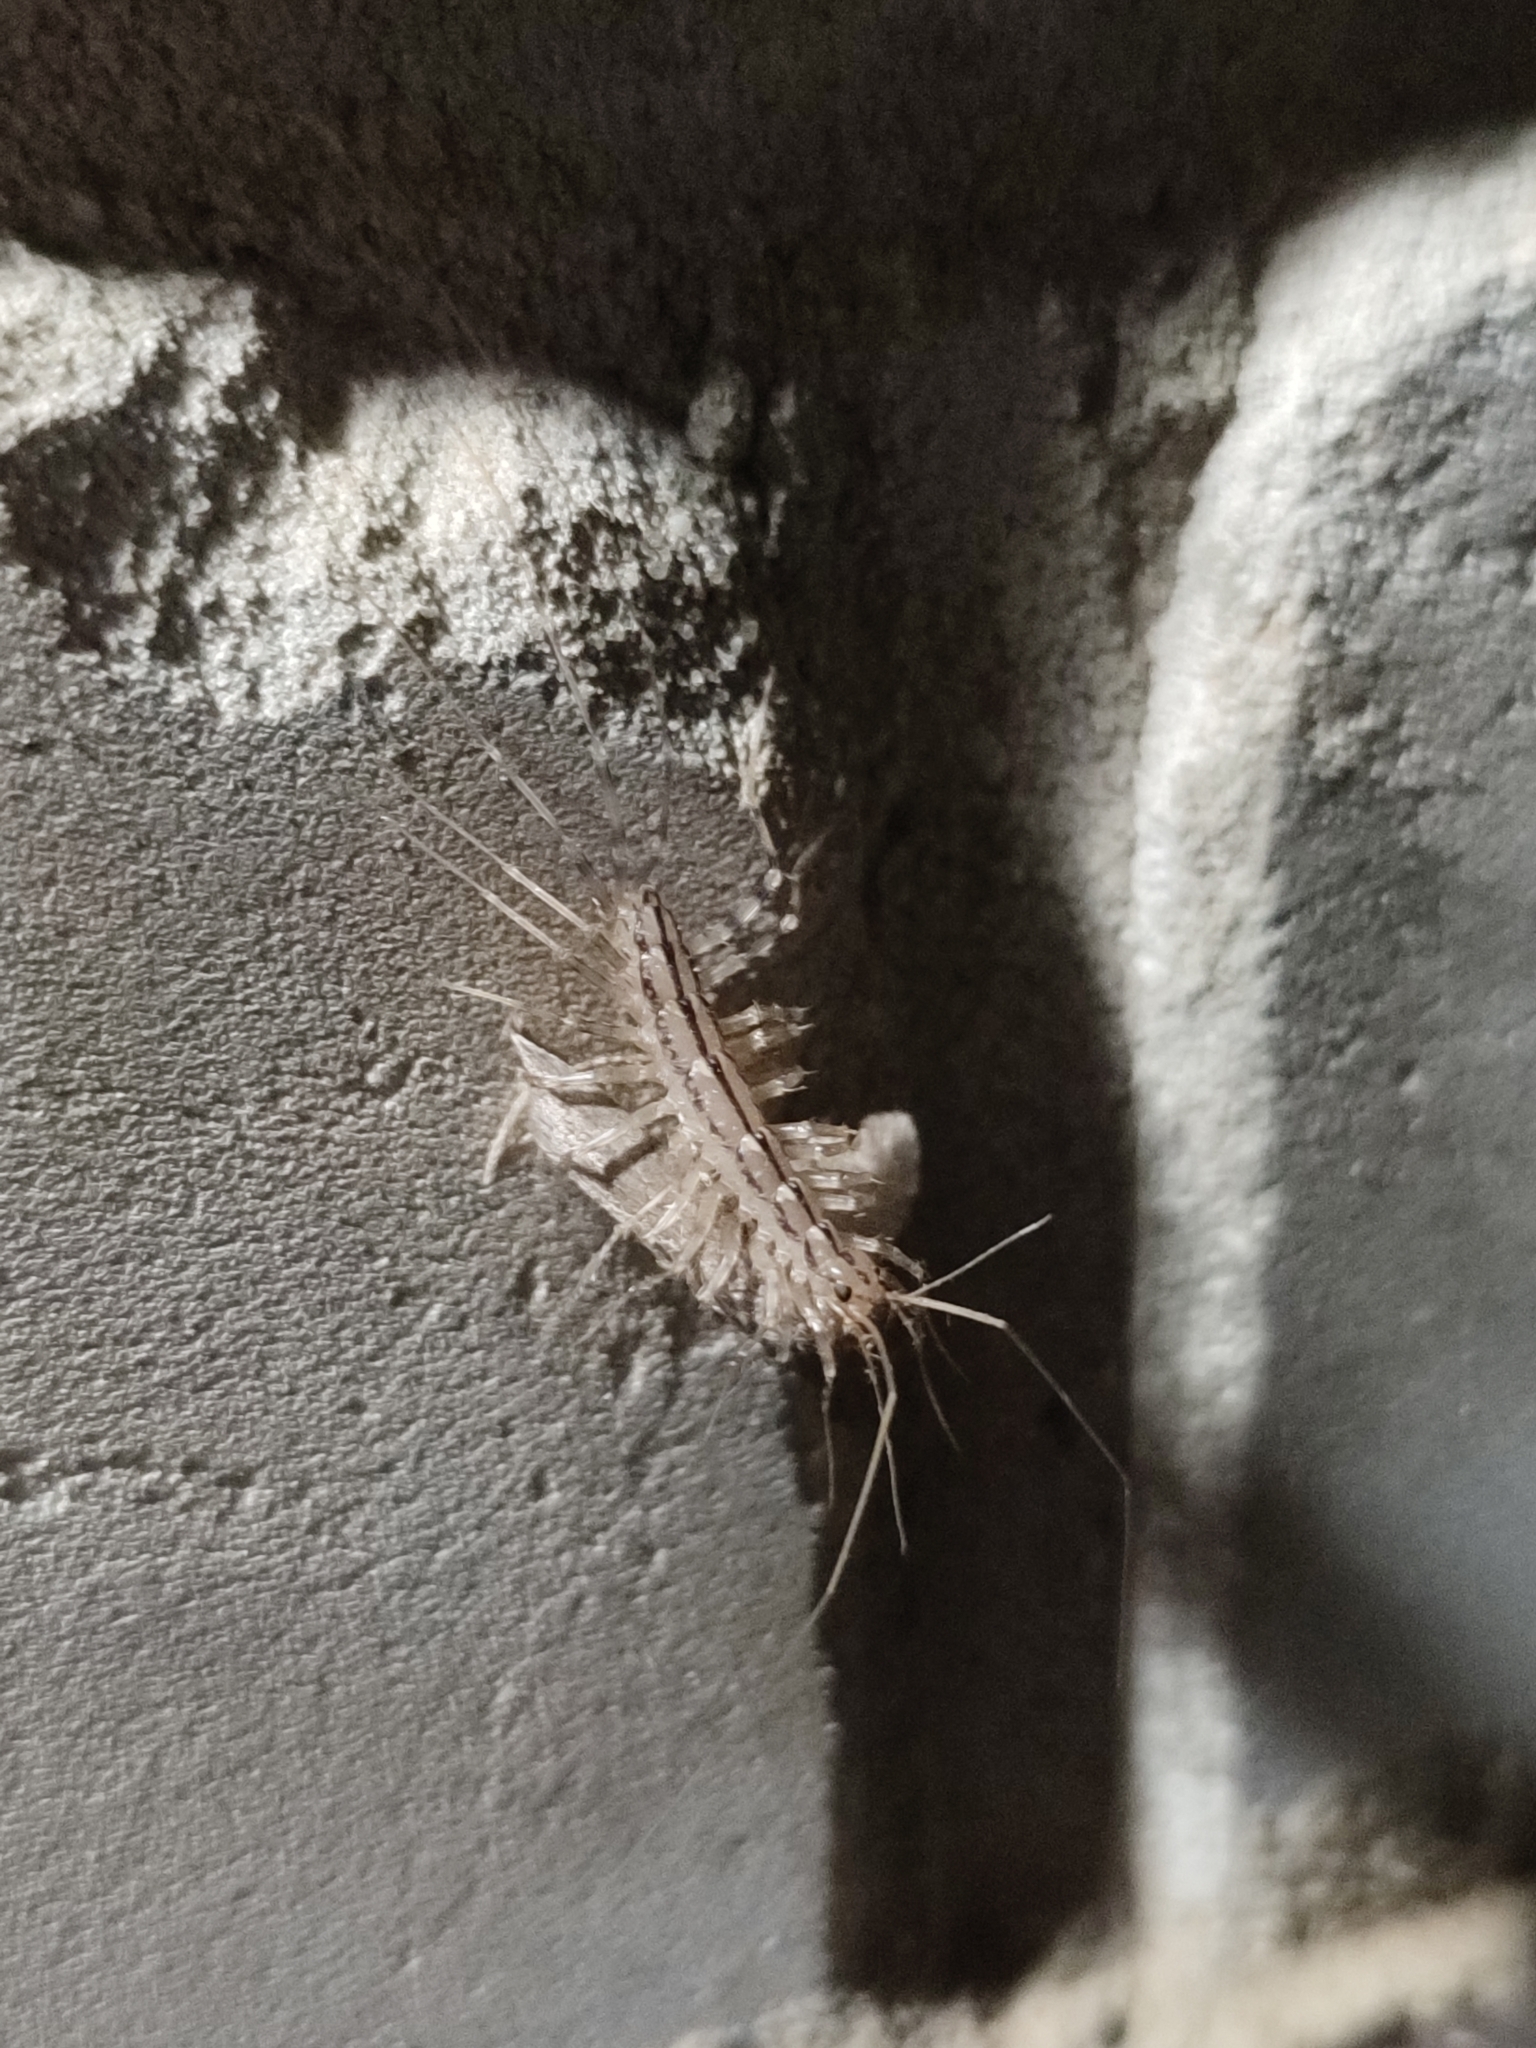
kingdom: Animalia
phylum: Arthropoda
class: Chilopoda
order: Scutigeromorpha
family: Scutigeridae
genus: Scutigera
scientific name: Scutigera coleoptrata
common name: House centipede
